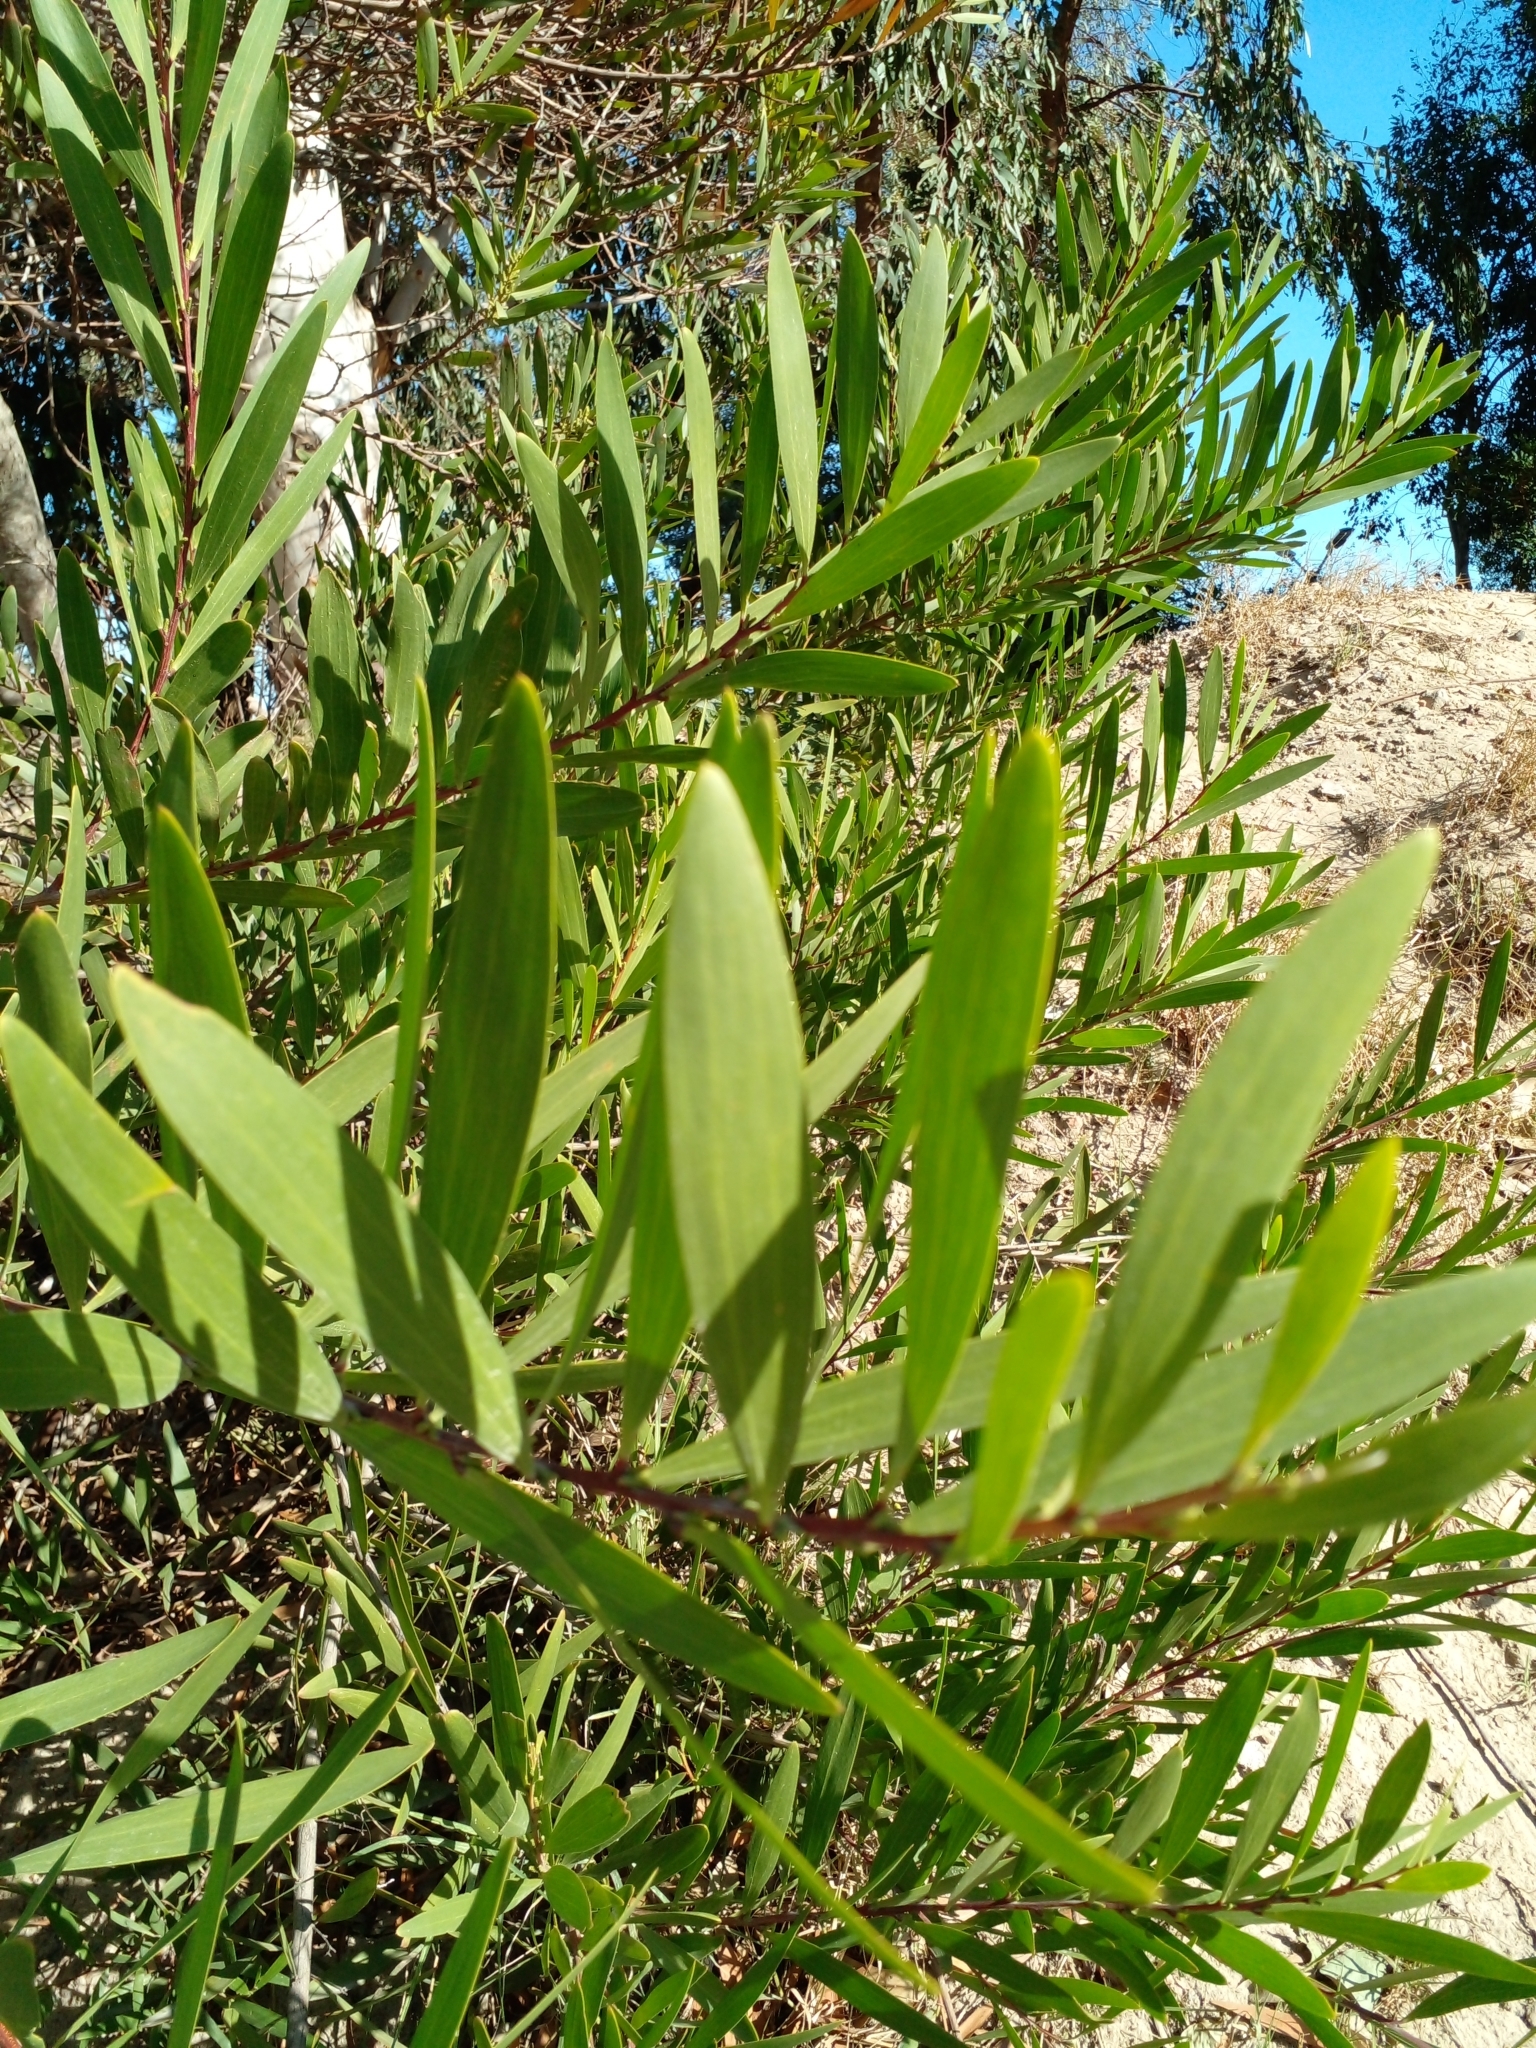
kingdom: Plantae
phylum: Tracheophyta
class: Magnoliopsida
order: Fabales
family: Fabaceae
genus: Acacia
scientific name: Acacia longifolia
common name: Sydney golden wattle
